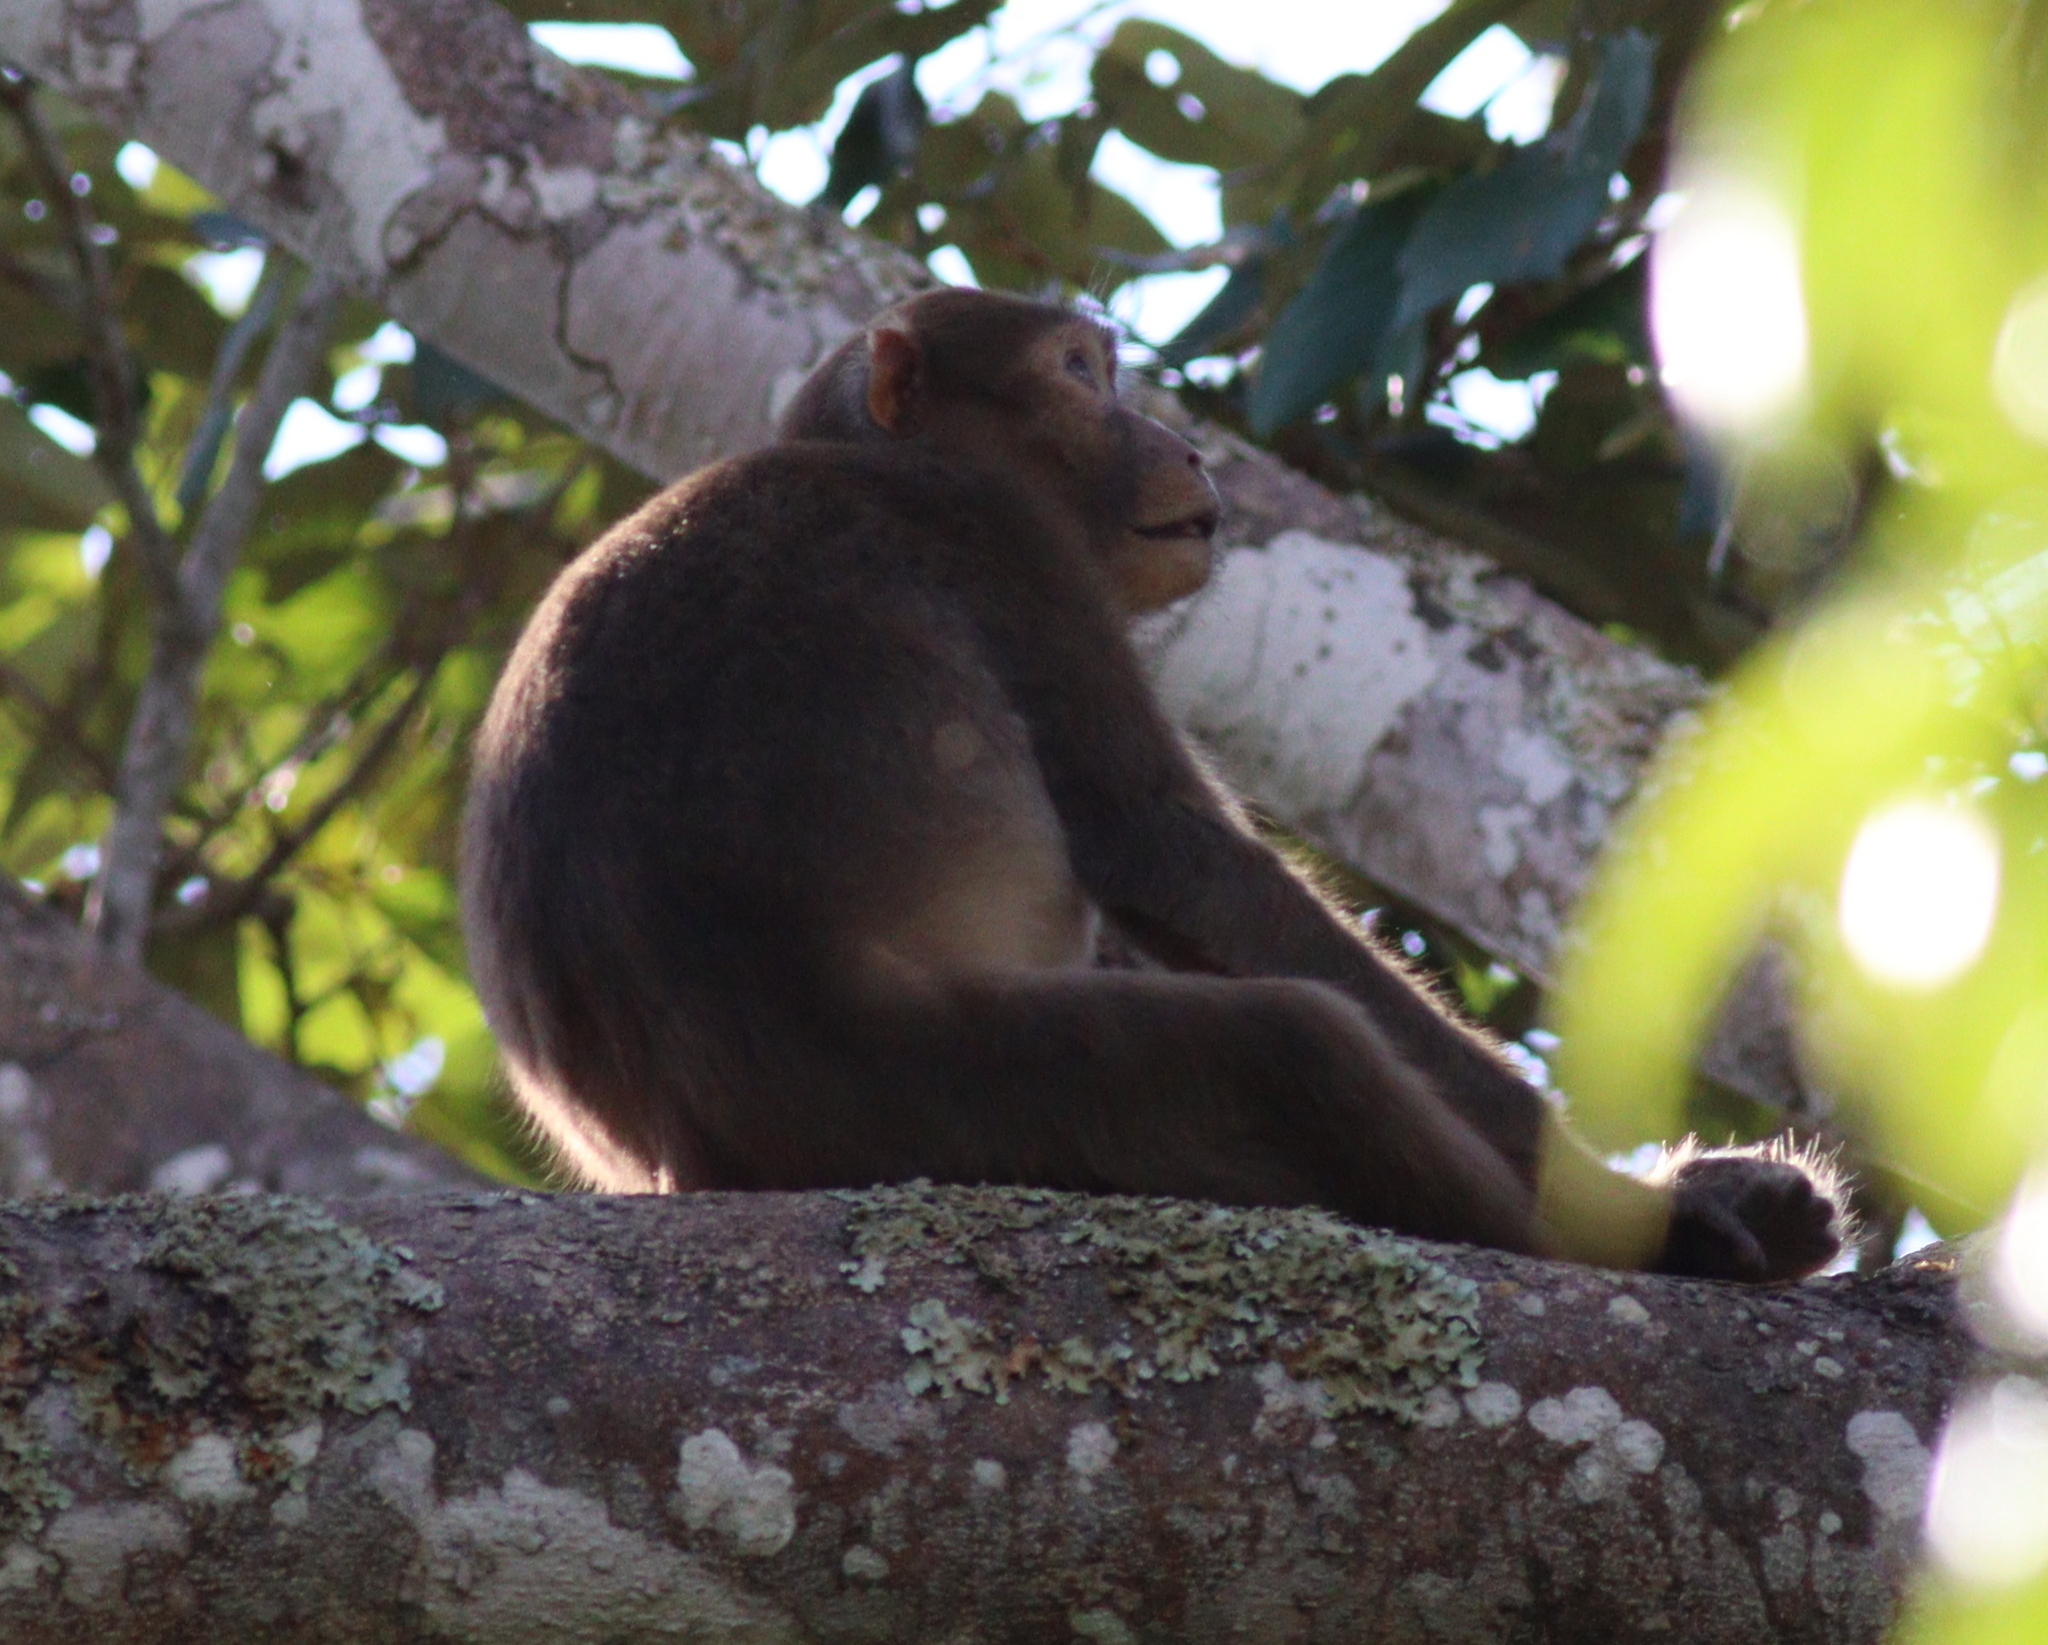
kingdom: Animalia
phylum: Chordata
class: Mammalia
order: Primates
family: Cercopithecidae
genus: Macaca
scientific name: Macaca assamensis
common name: Assam macaque
